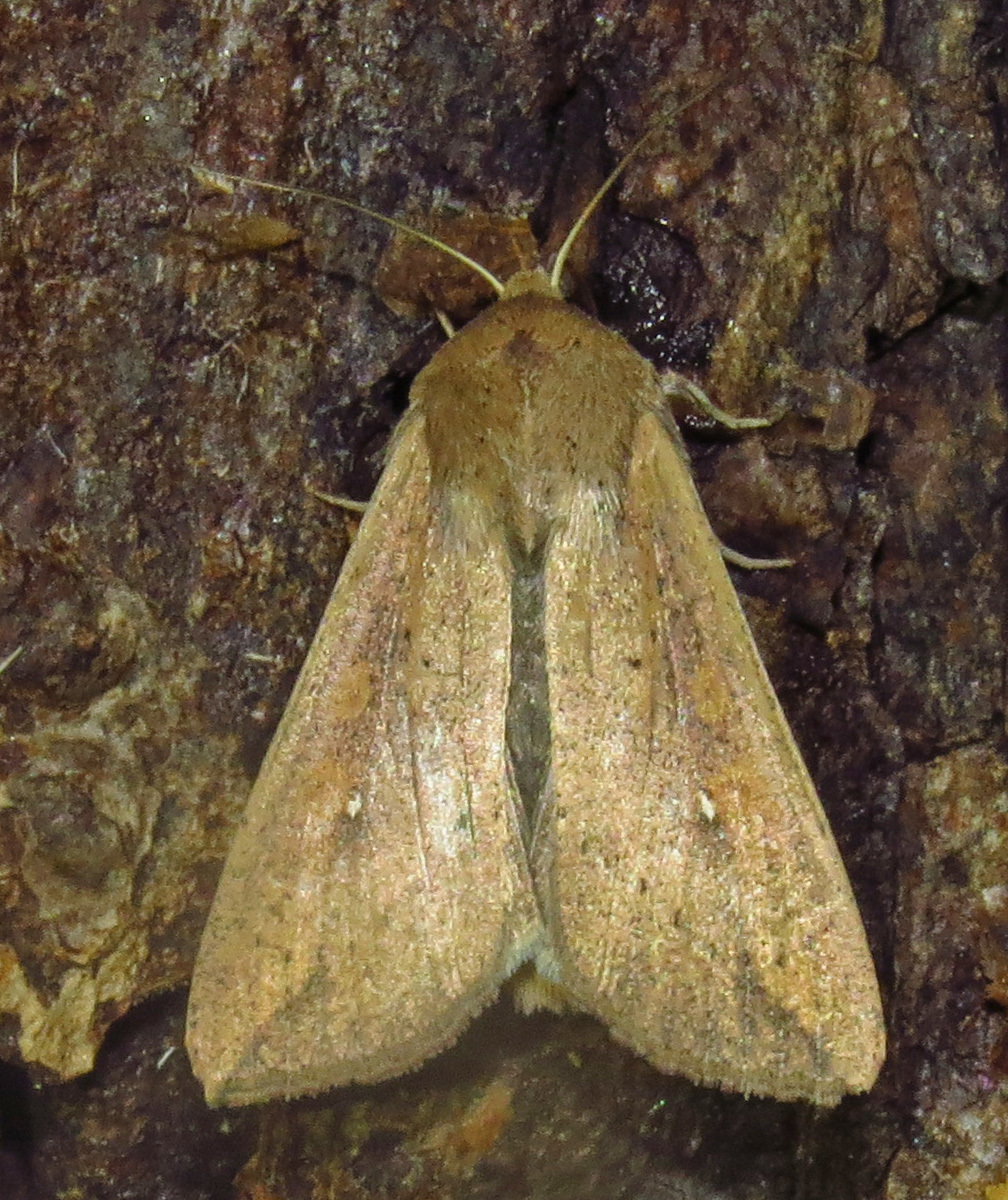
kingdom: Animalia
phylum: Arthropoda
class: Insecta
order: Lepidoptera
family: Noctuidae
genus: Mythimna
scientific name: Mythimna unipuncta
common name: White-speck
